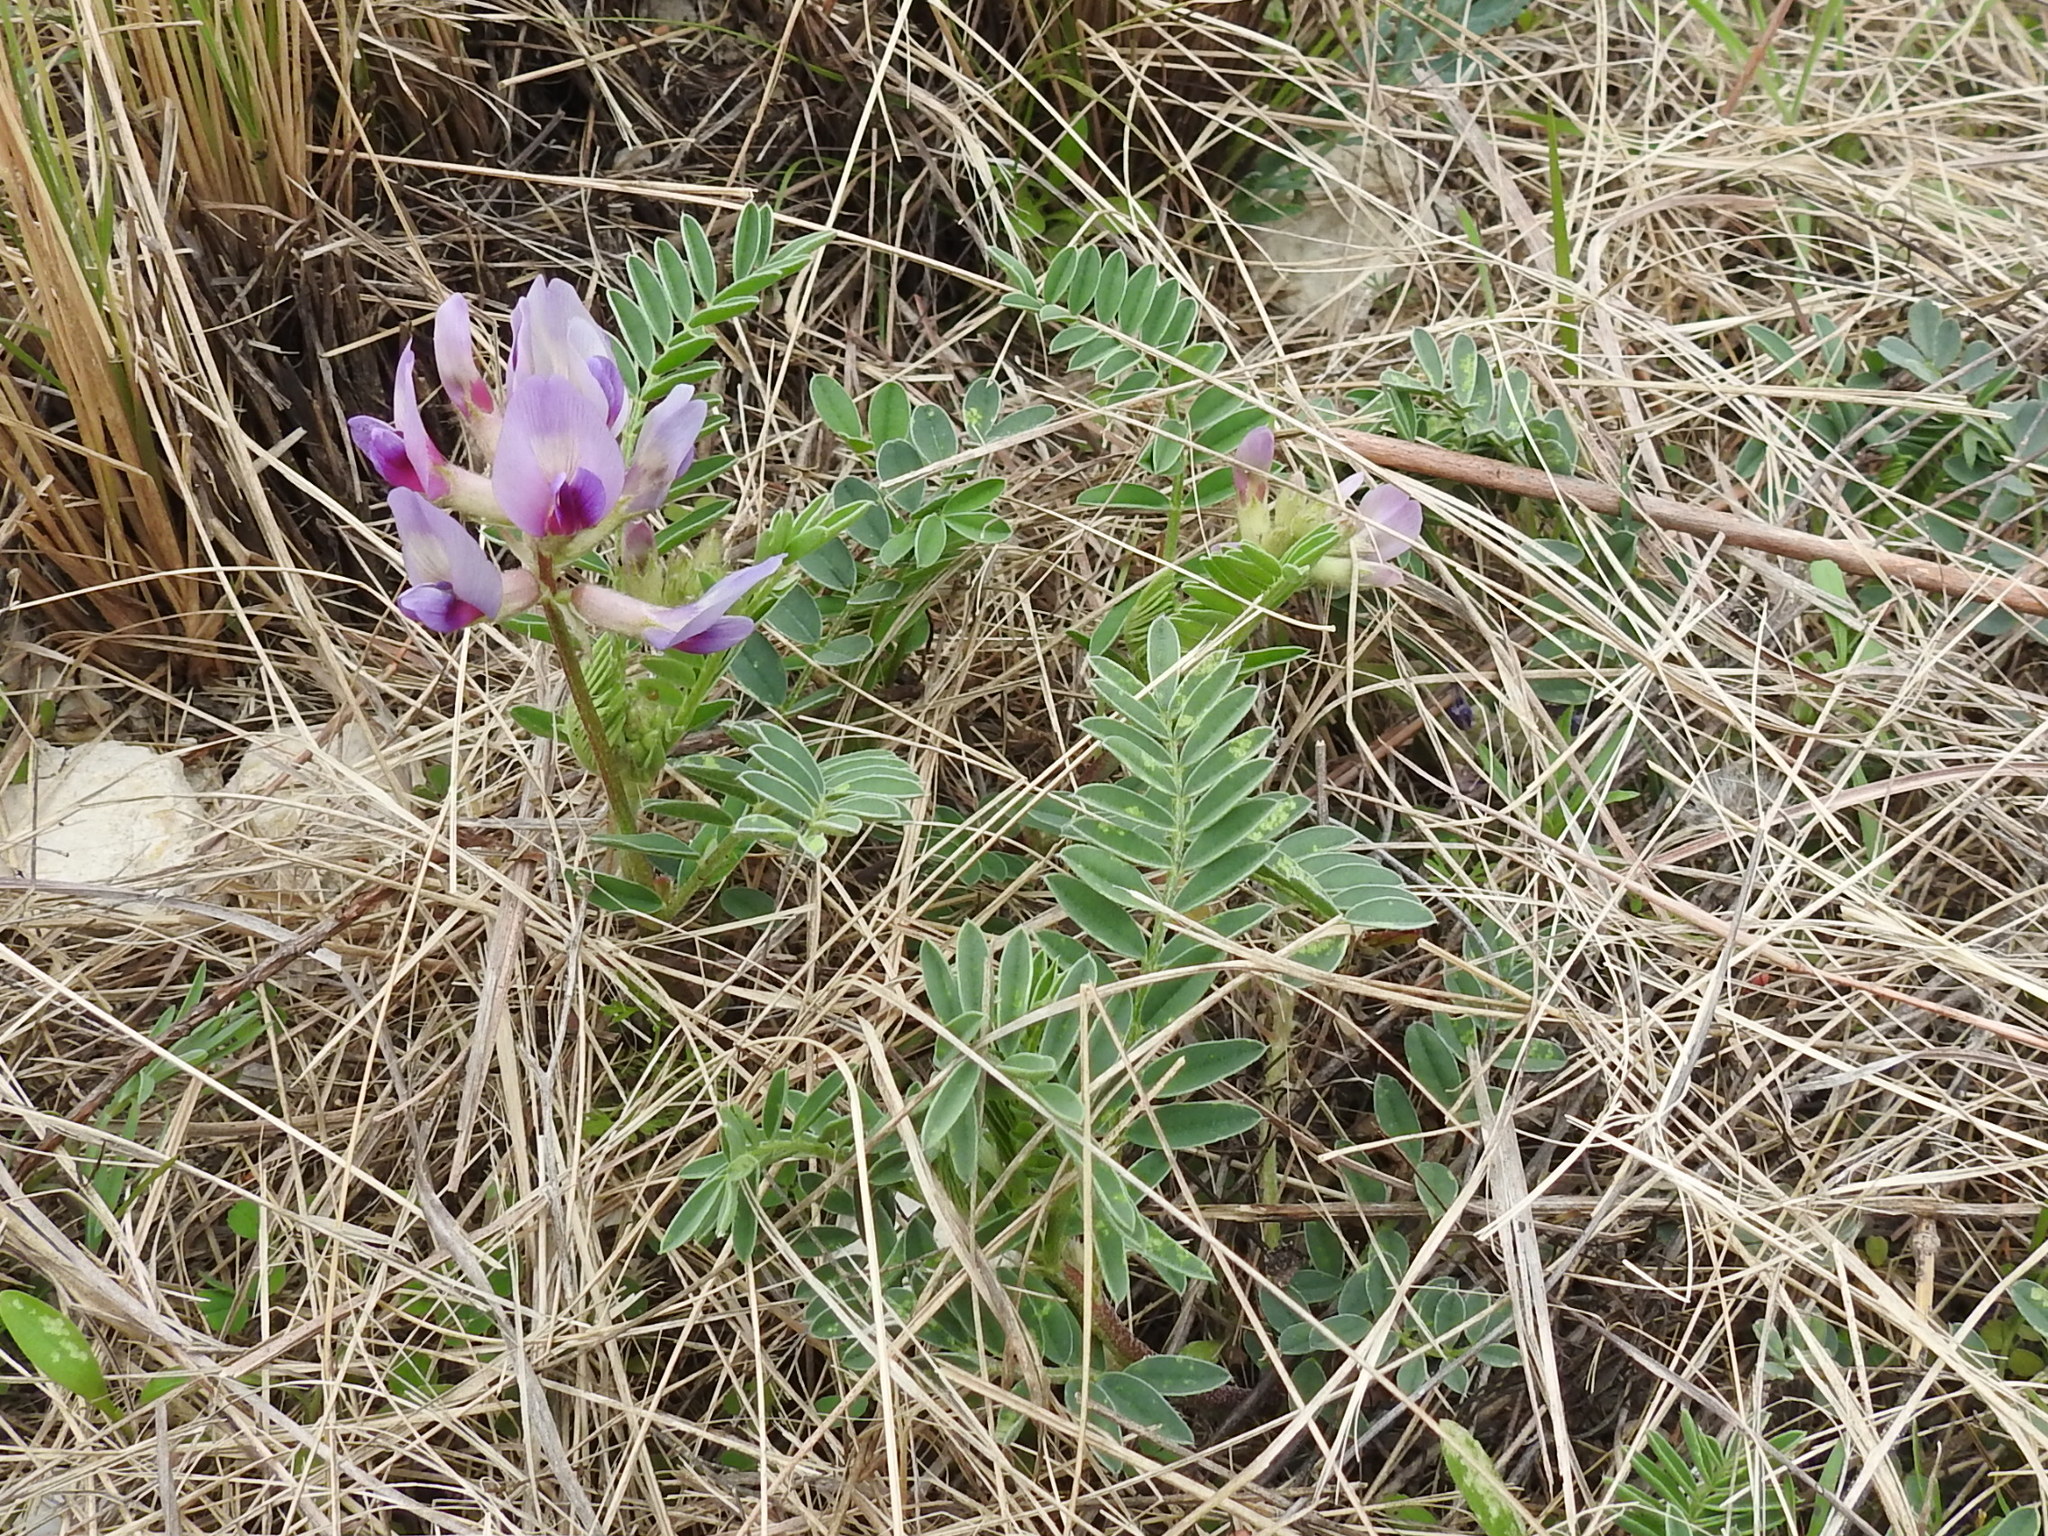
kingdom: Plantae
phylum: Tracheophyta
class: Magnoliopsida
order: Fabales
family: Fabaceae
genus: Astragalus
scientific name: Astragalus crassicarpus
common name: Ground-plum milk-vetch
